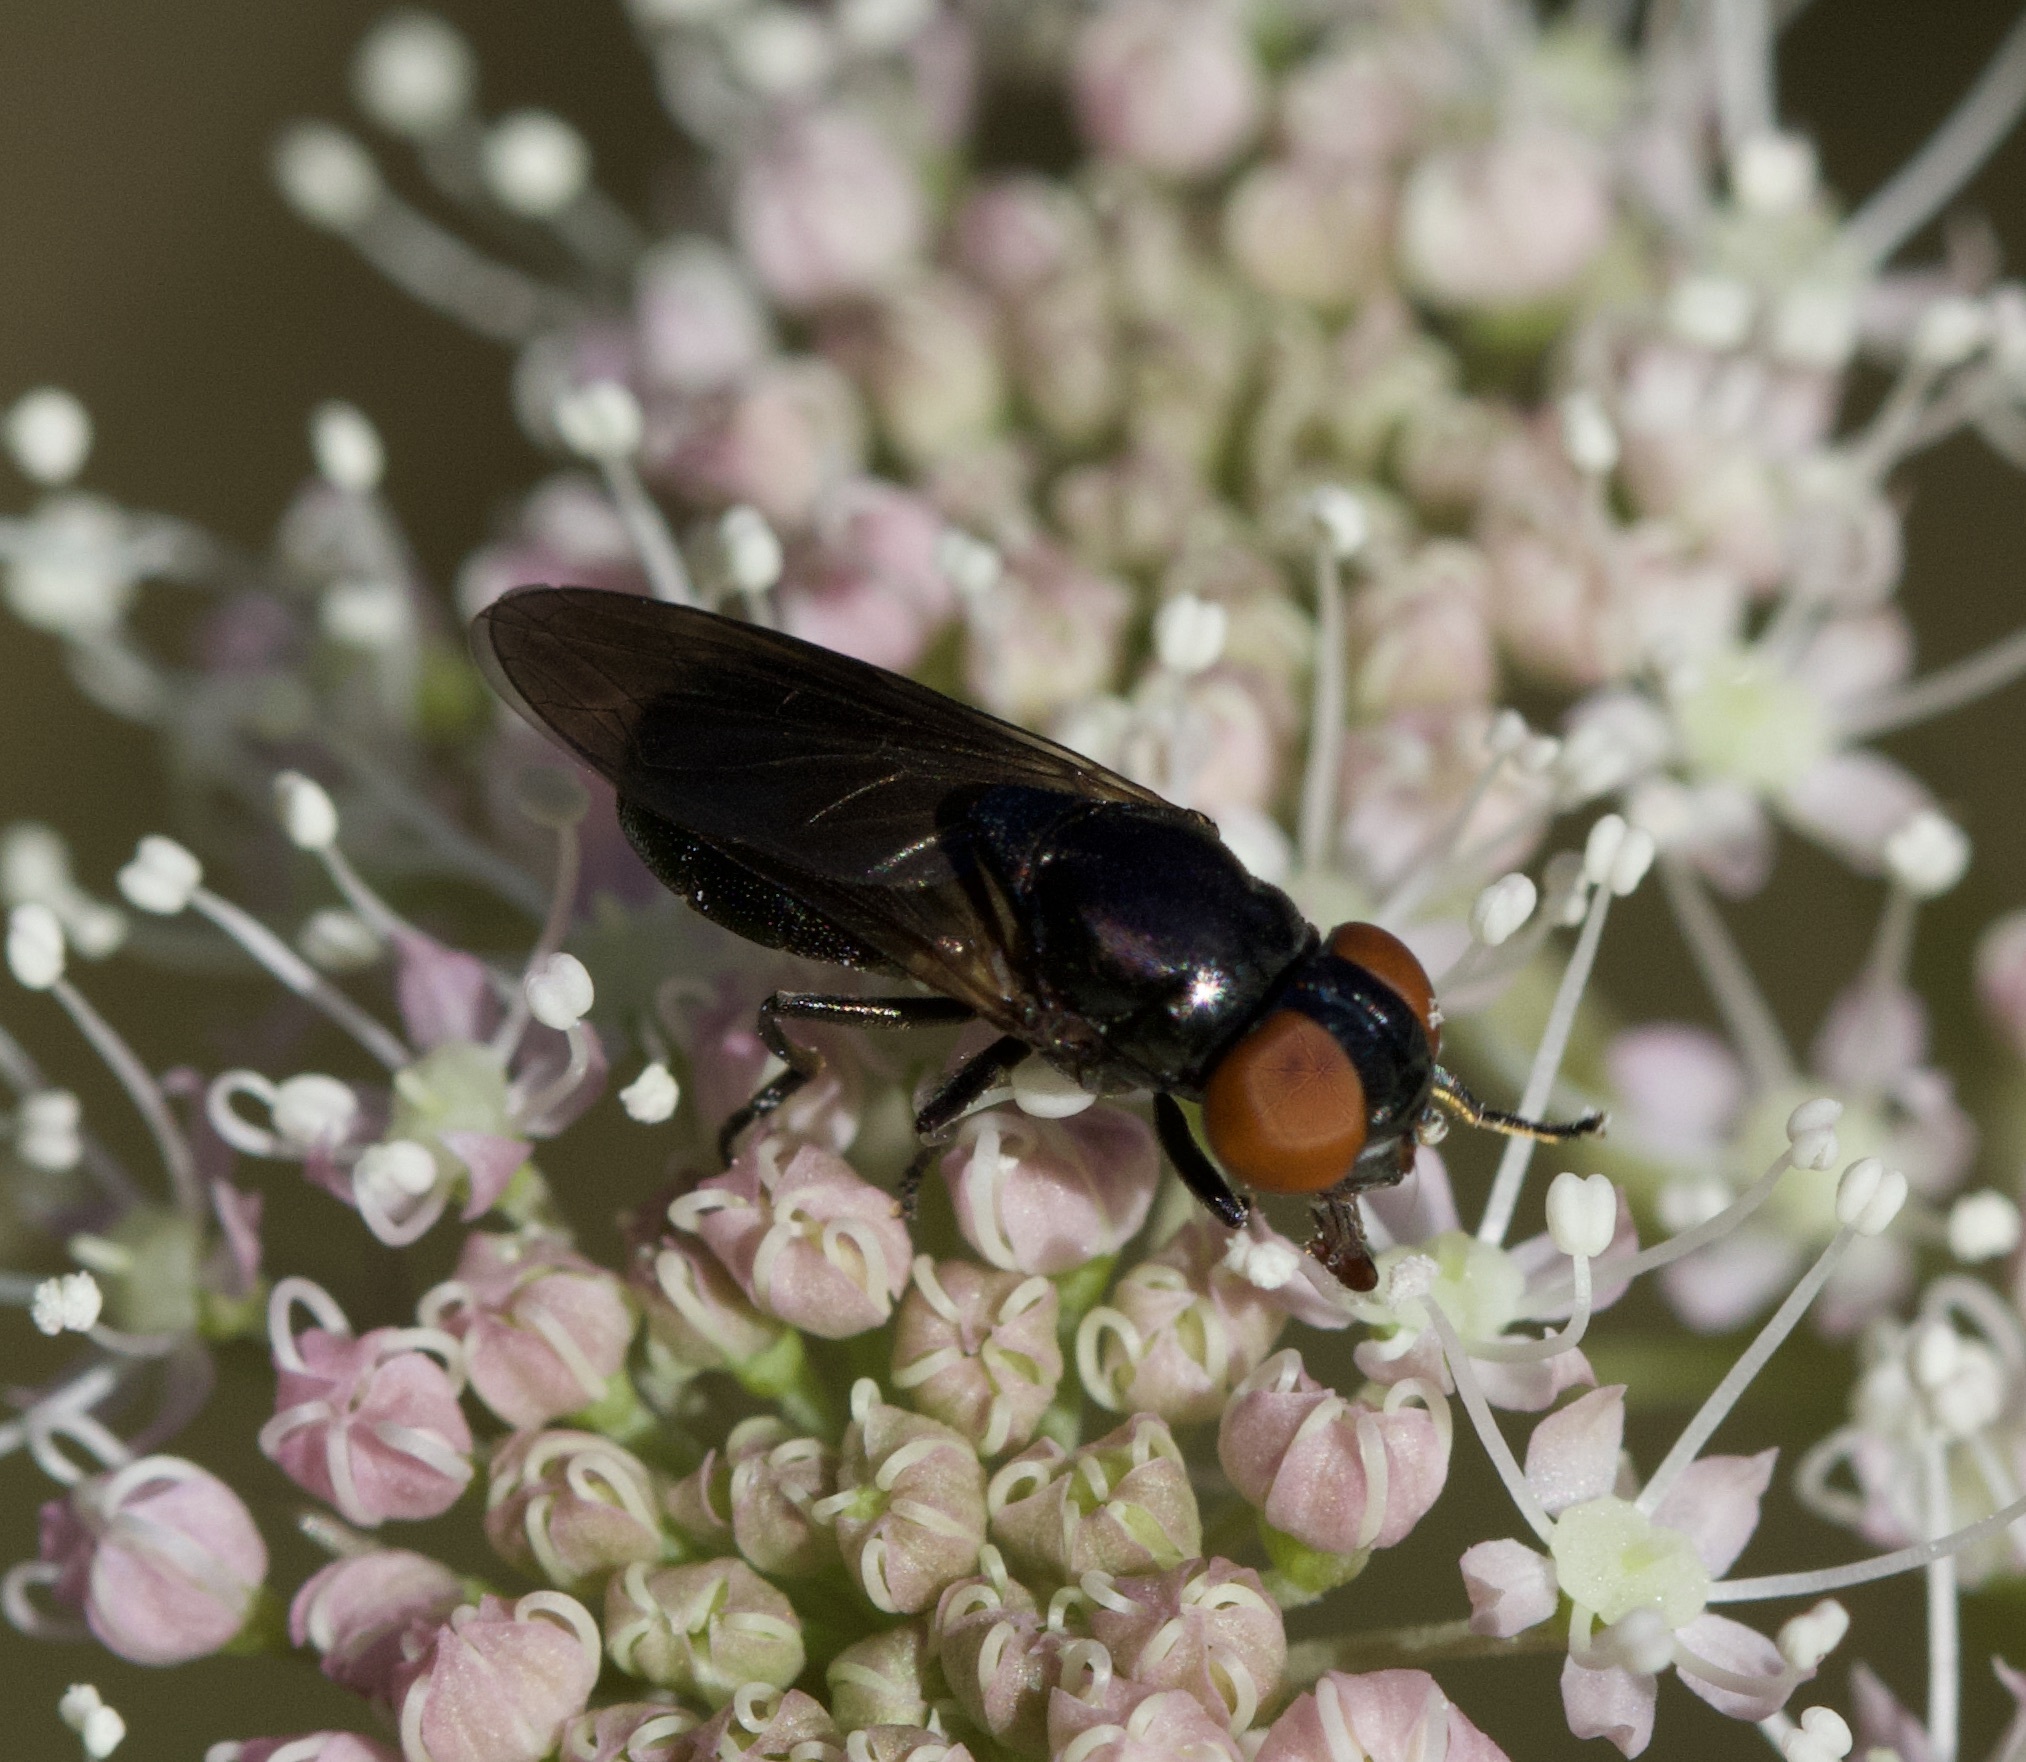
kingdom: Animalia
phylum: Arthropoda
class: Insecta
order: Diptera
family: Syrphidae
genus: Chrysogaster
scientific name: Chrysogaster solstitialis
